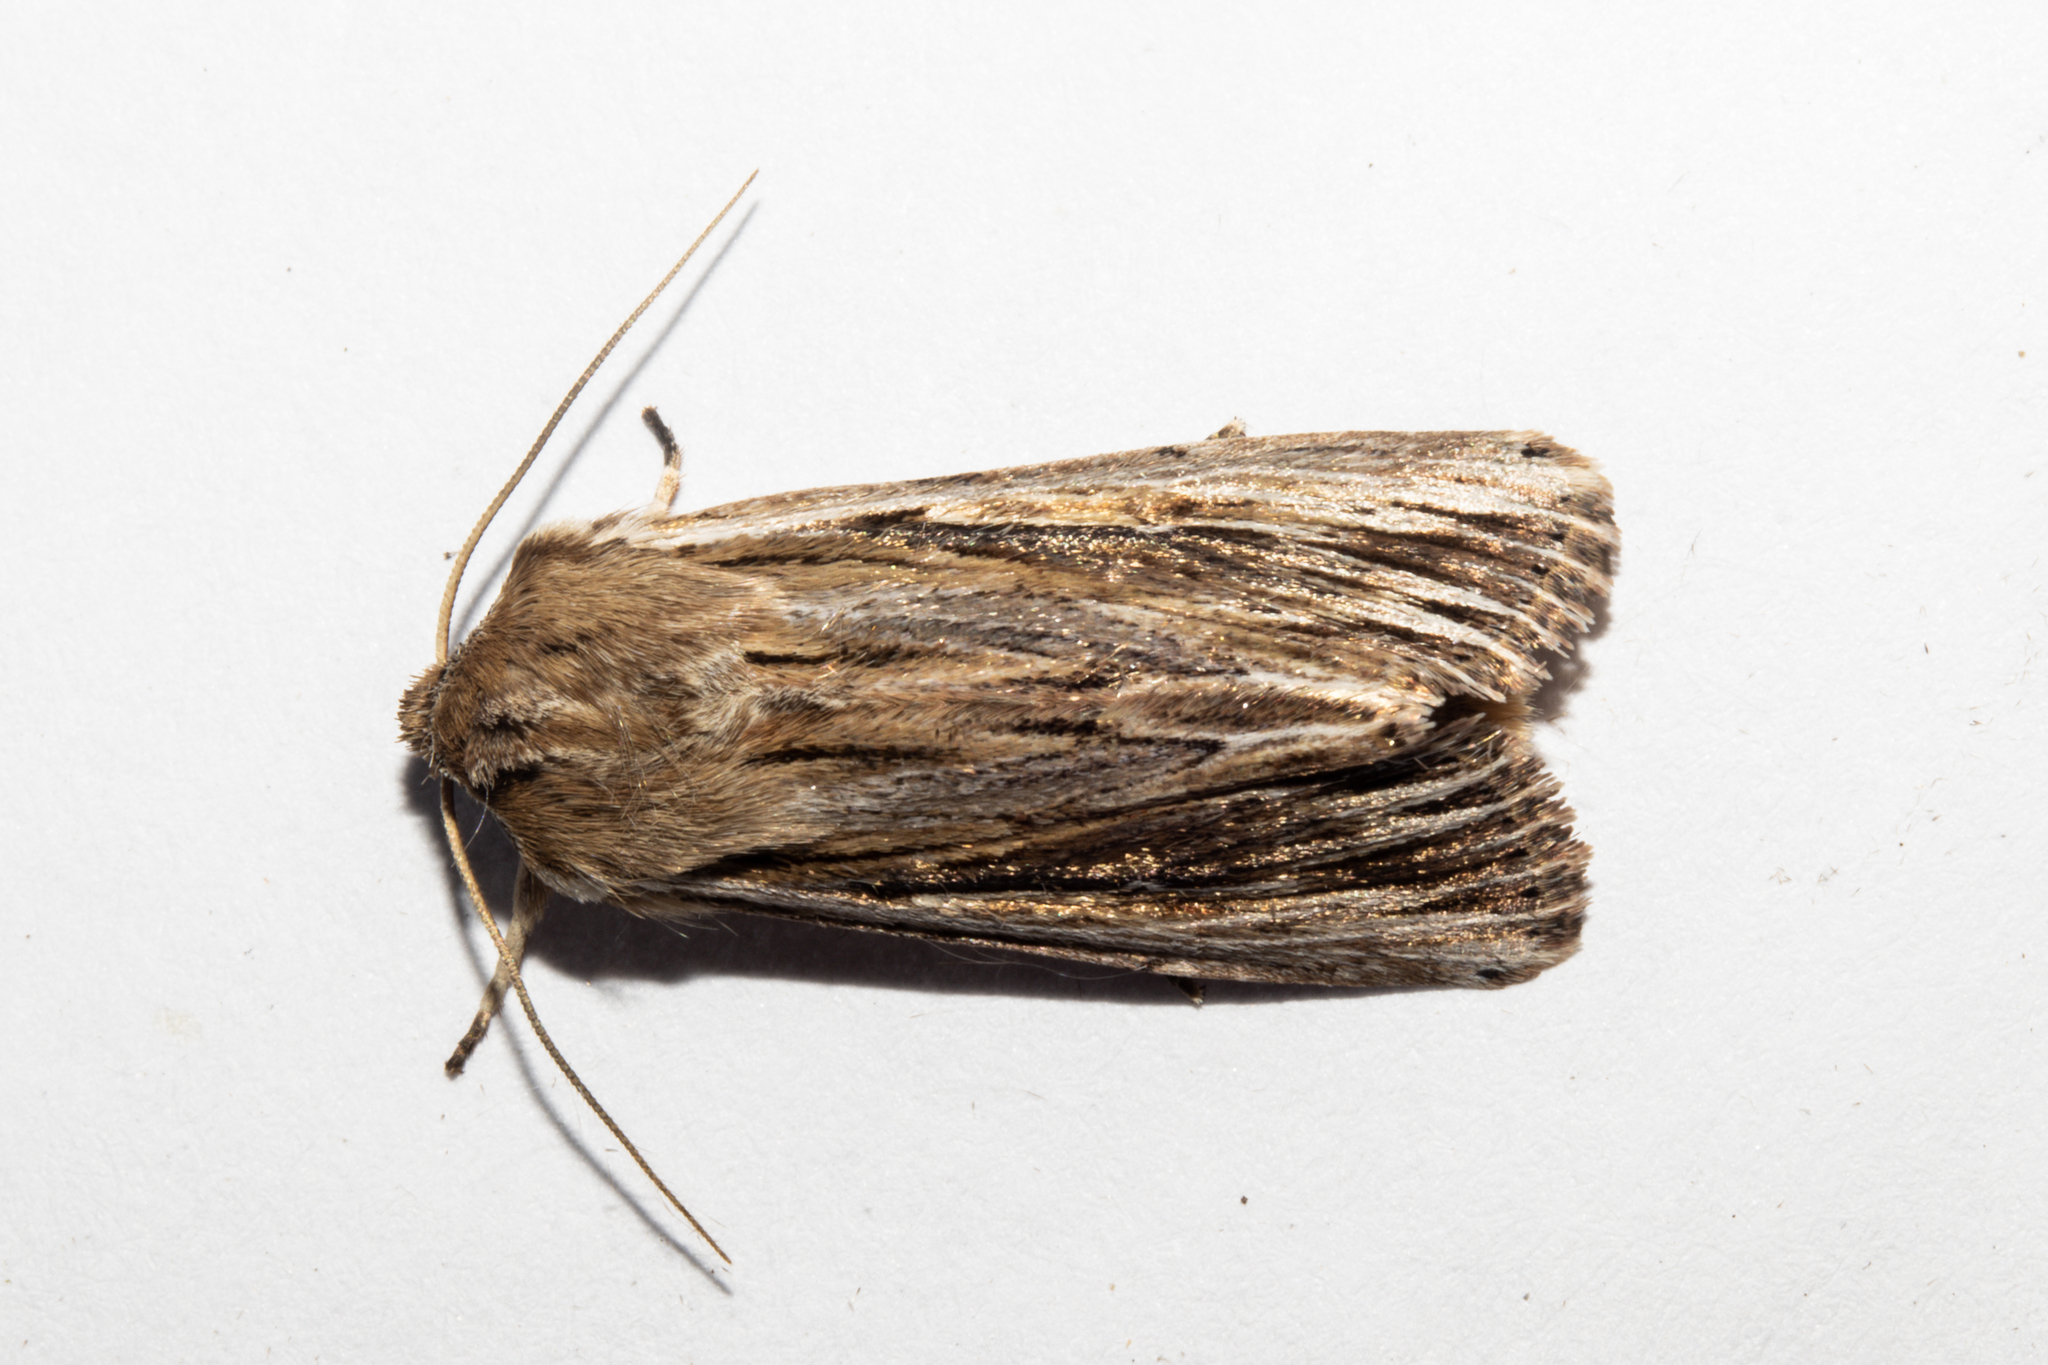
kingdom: Animalia
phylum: Arthropoda
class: Insecta
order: Lepidoptera
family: Noctuidae
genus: Persectania
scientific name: Persectania aversa
